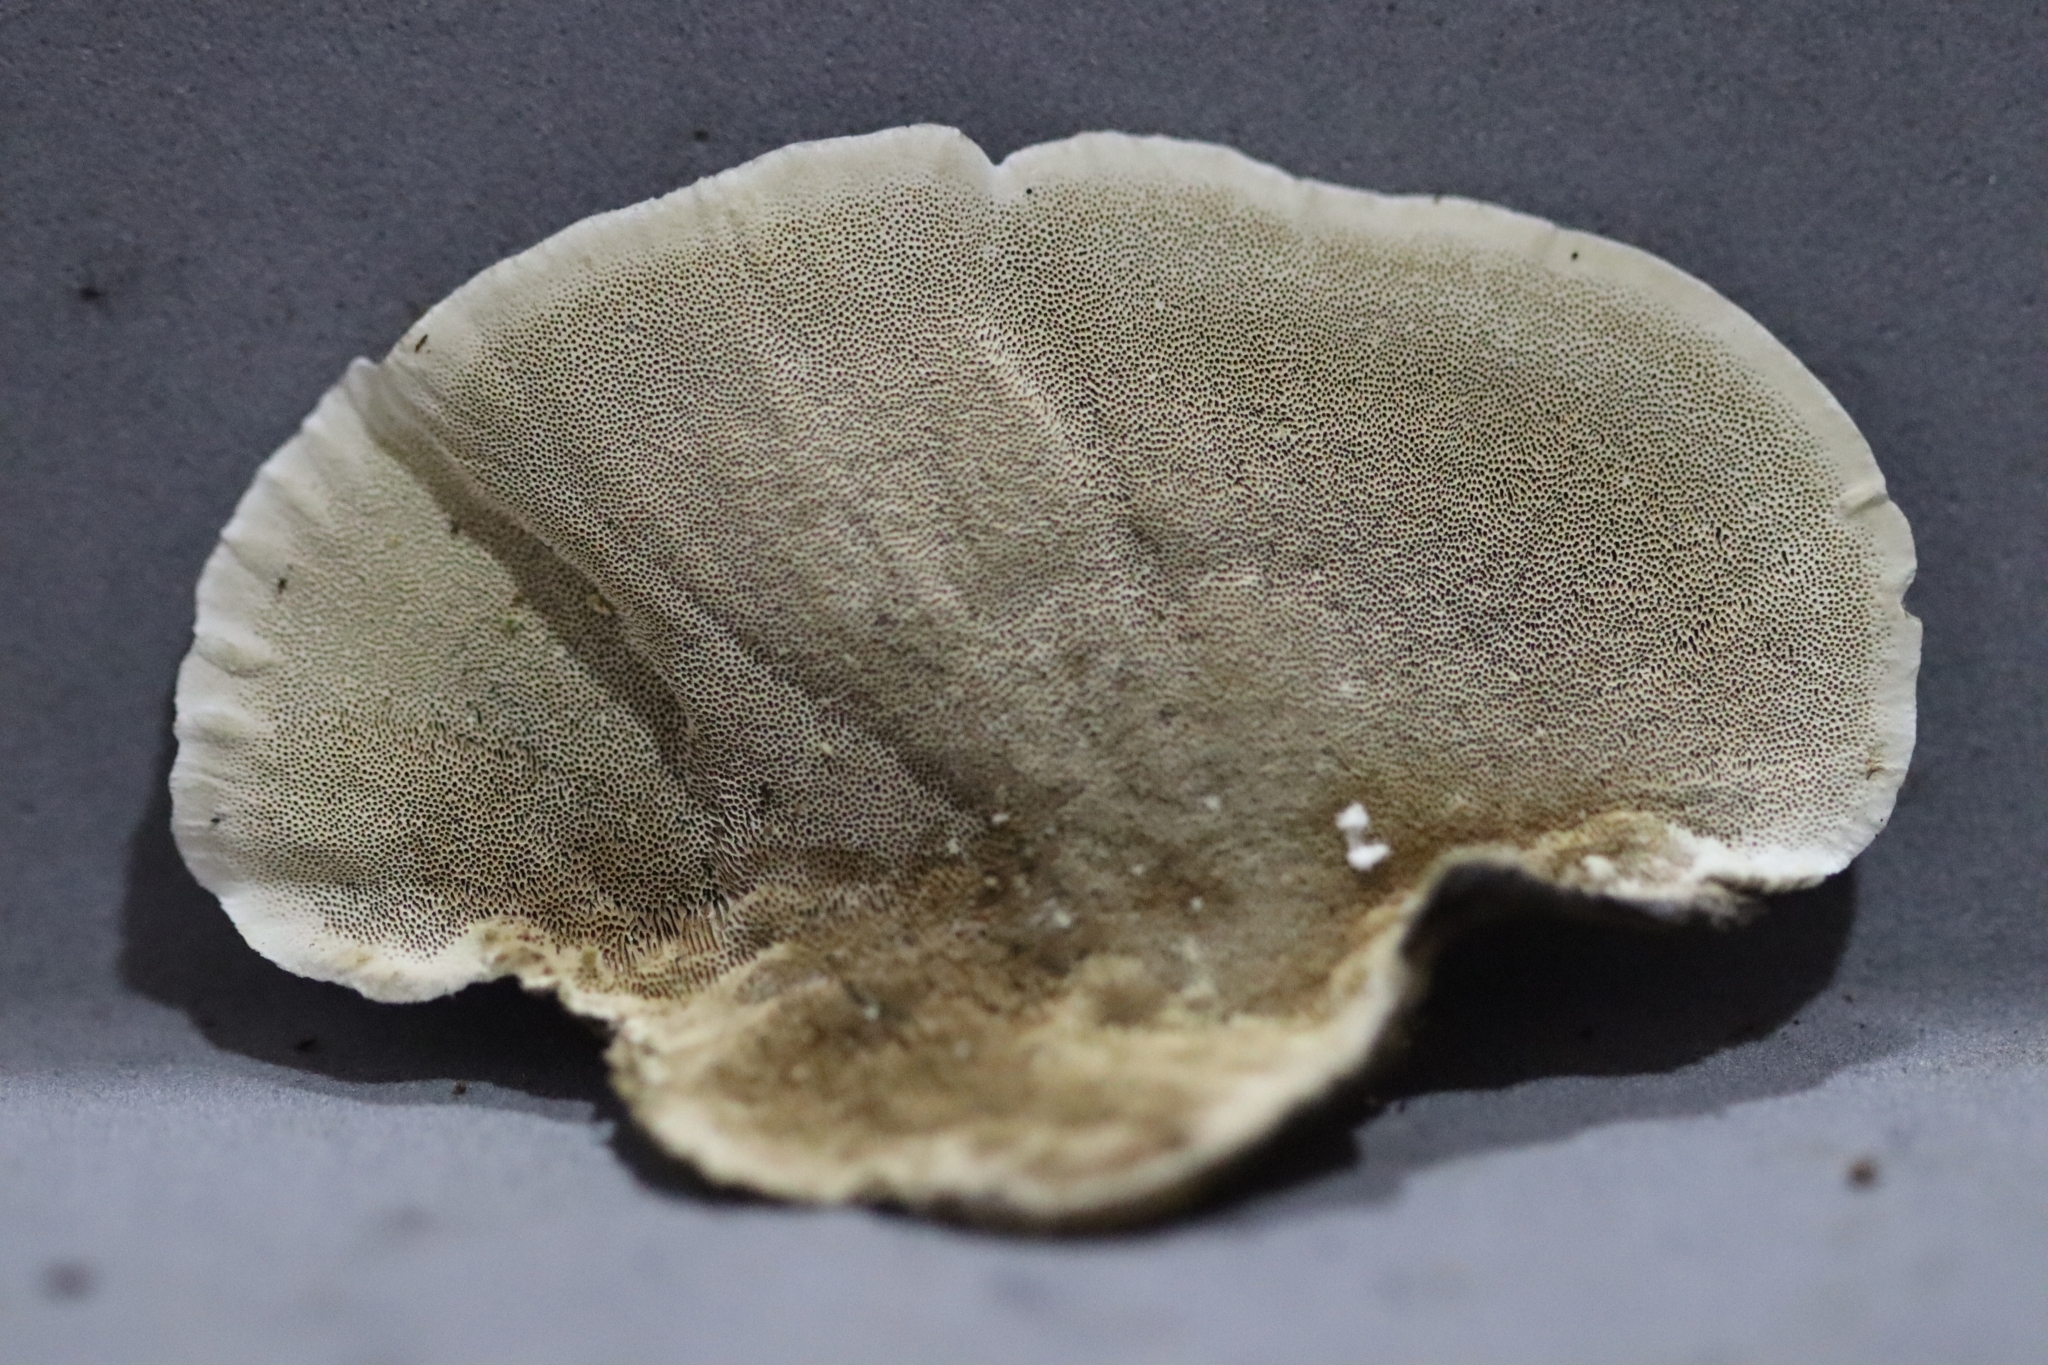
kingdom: Fungi
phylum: Basidiomycota
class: Agaricomycetes
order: Polyporales
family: Polyporaceae
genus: Trametes
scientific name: Trametes versicolor
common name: Turkeytail
